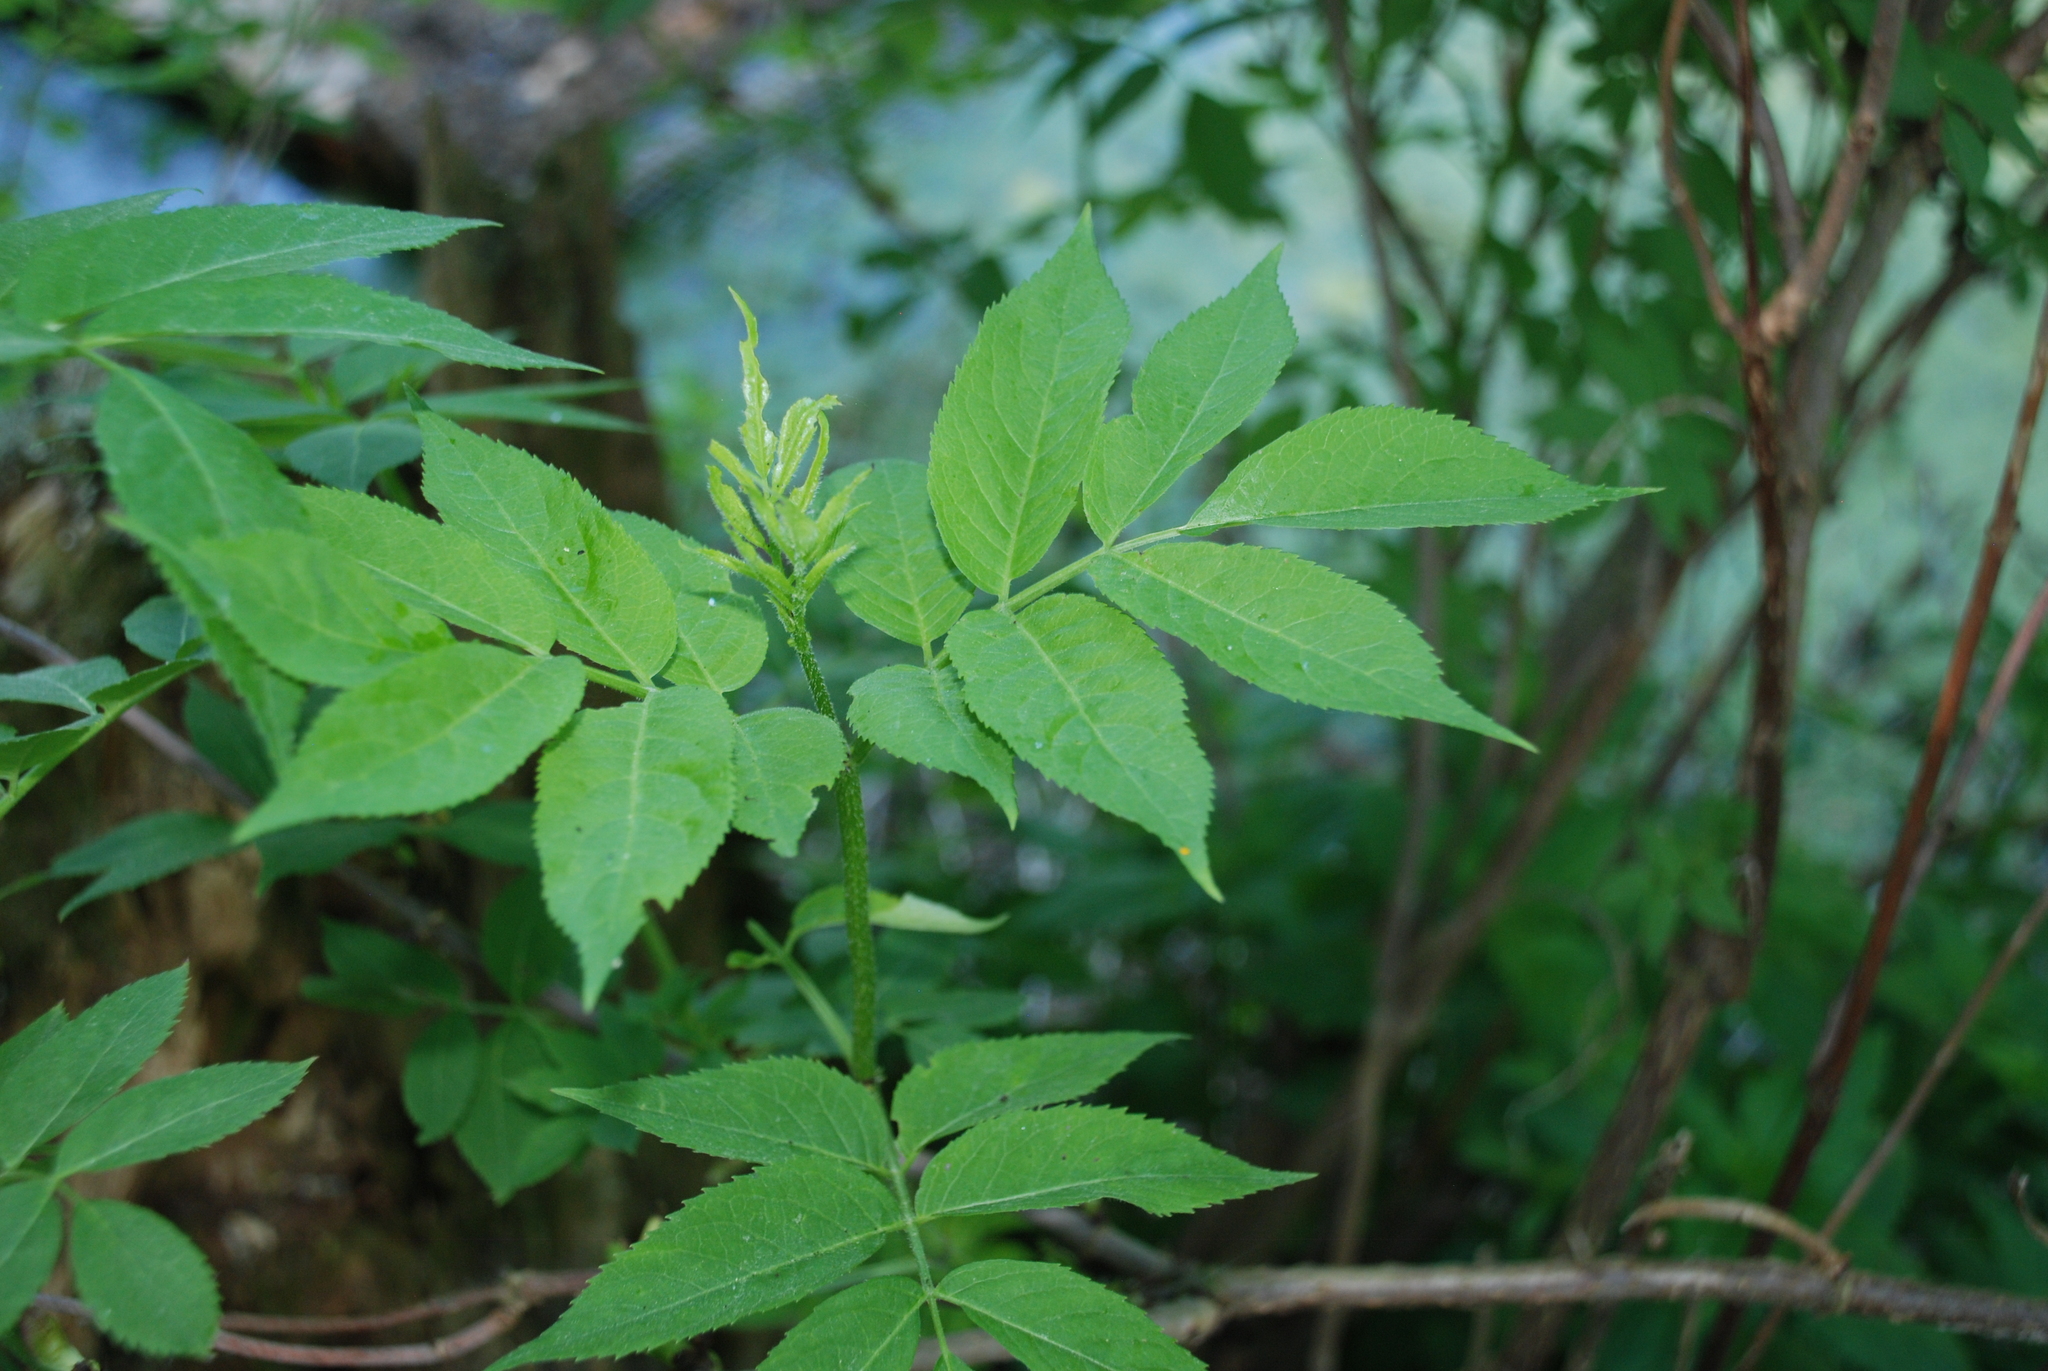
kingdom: Plantae
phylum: Tracheophyta
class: Magnoliopsida
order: Dipsacales
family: Viburnaceae
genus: Sambucus
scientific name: Sambucus racemosa
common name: Red-berried elder
